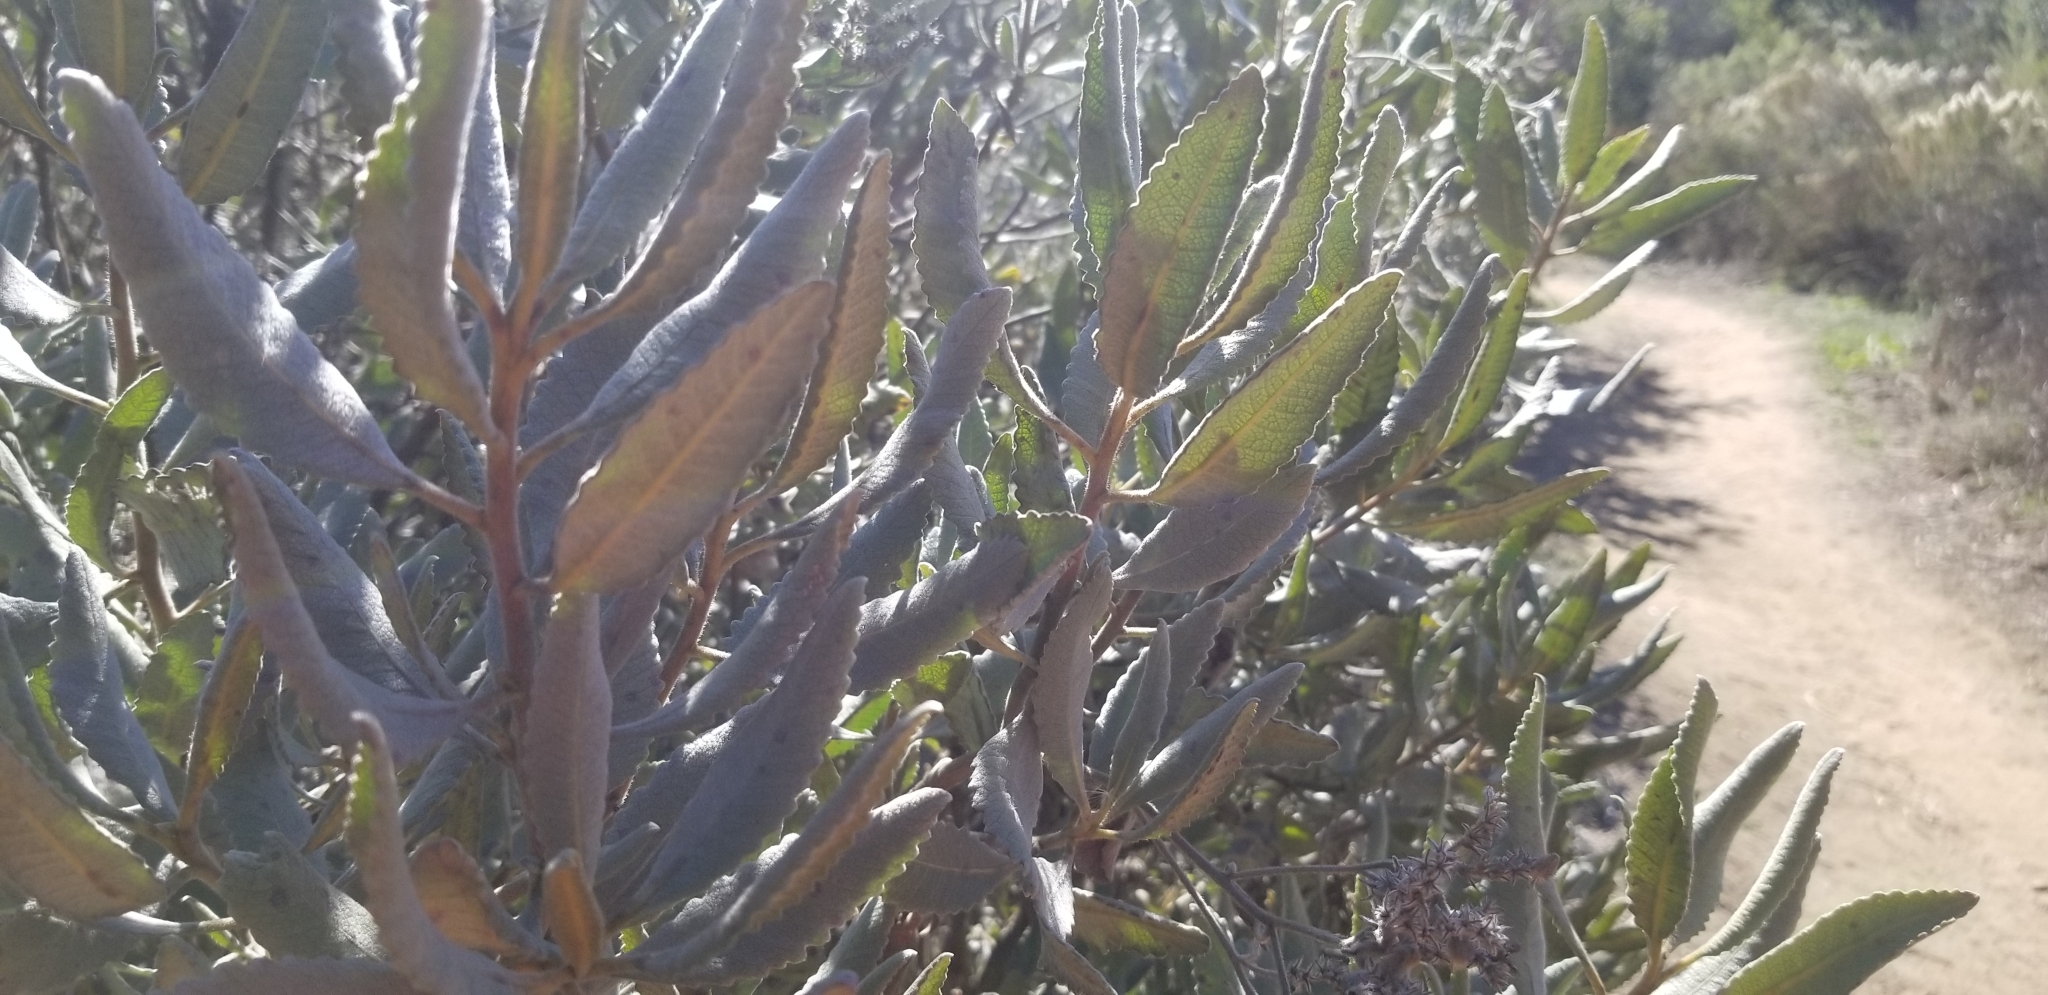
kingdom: Plantae
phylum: Tracheophyta
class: Magnoliopsida
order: Boraginales
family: Namaceae
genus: Eriodictyon
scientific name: Eriodictyon crassifolium
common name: Thick-leaf yerba-santa
